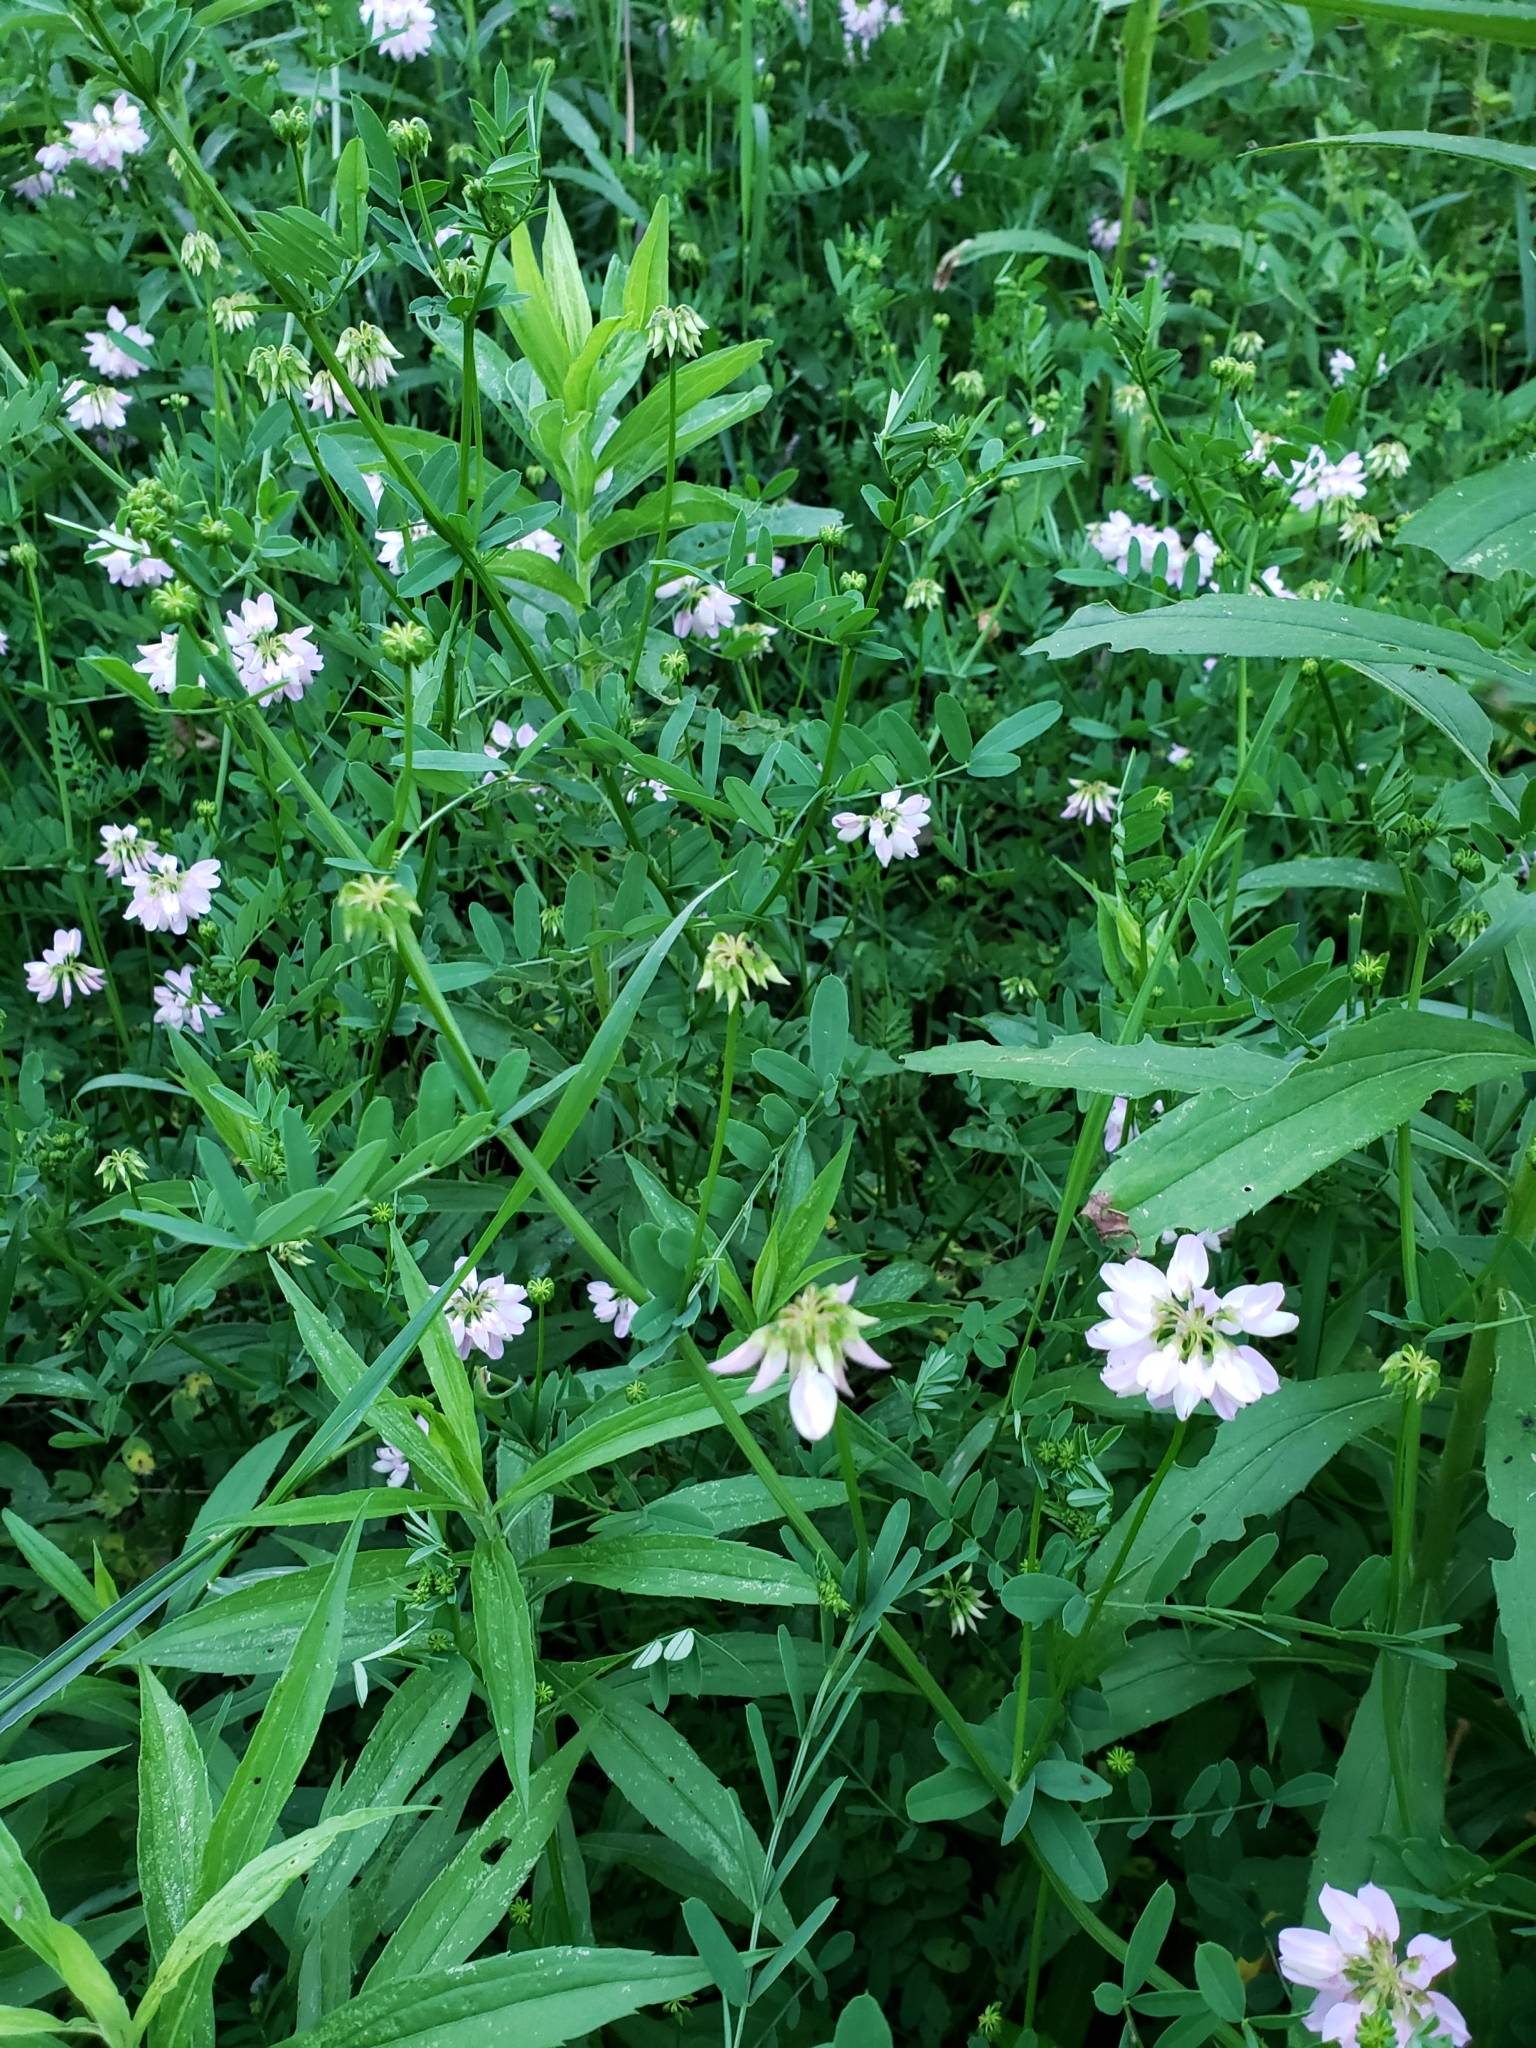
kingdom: Plantae
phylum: Tracheophyta
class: Magnoliopsida
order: Fabales
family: Fabaceae
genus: Coronilla
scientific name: Coronilla varia
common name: Crownvetch
